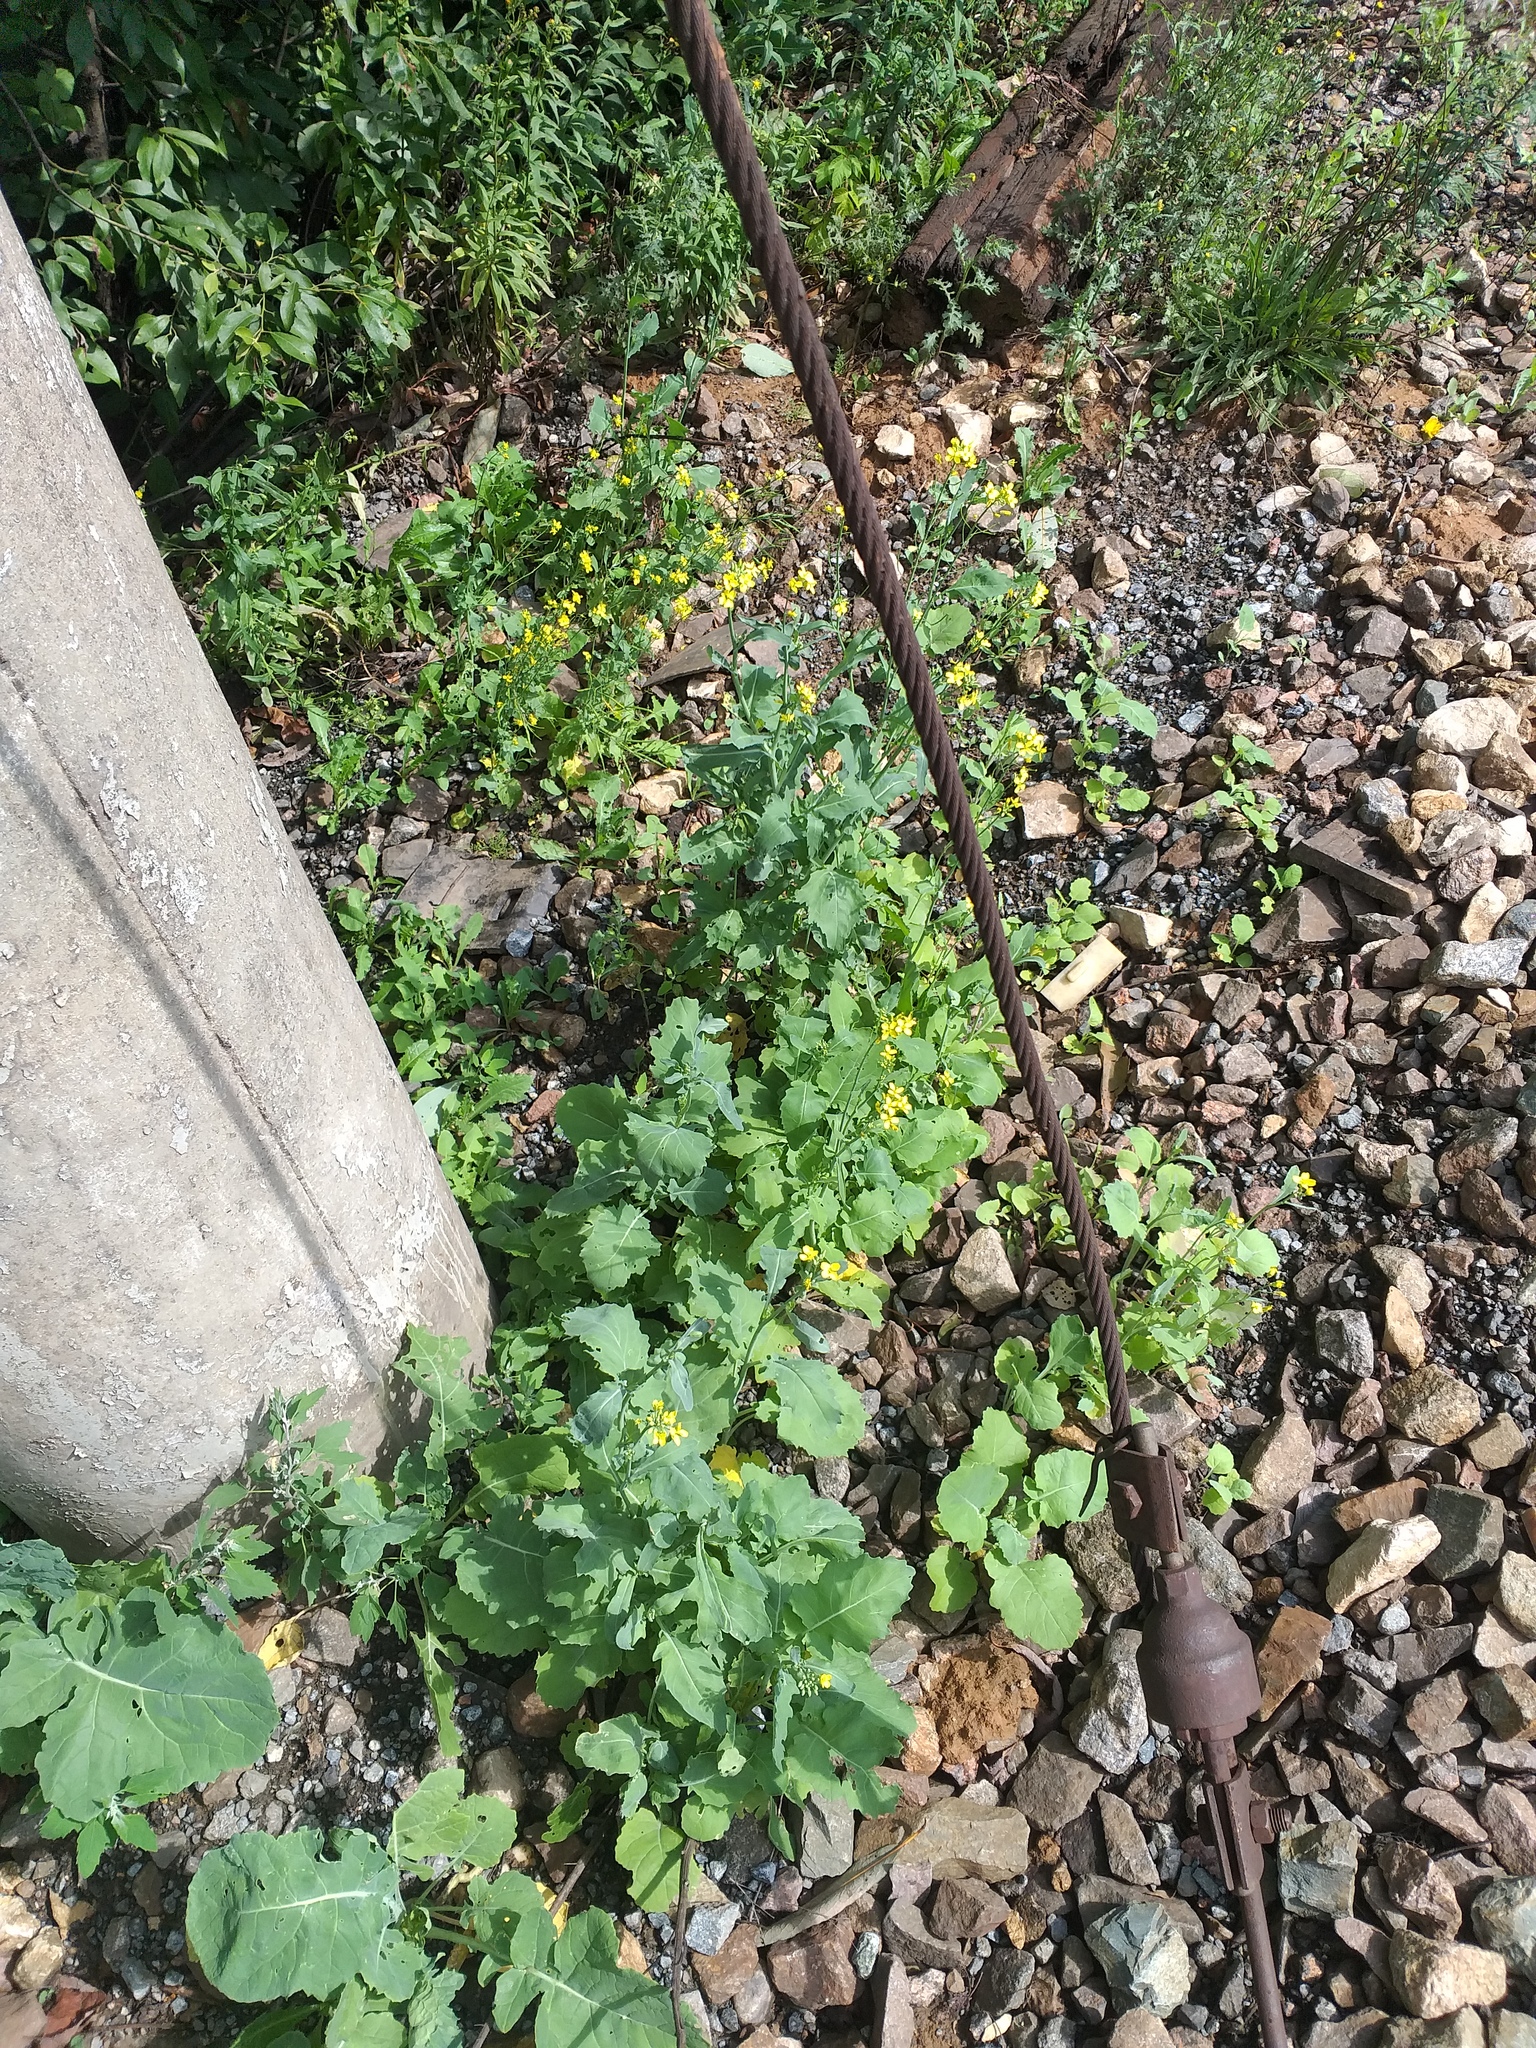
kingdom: Plantae
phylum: Tracheophyta
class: Magnoliopsida
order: Brassicales
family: Brassicaceae
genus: Brassica
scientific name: Brassica napus
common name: Rape
